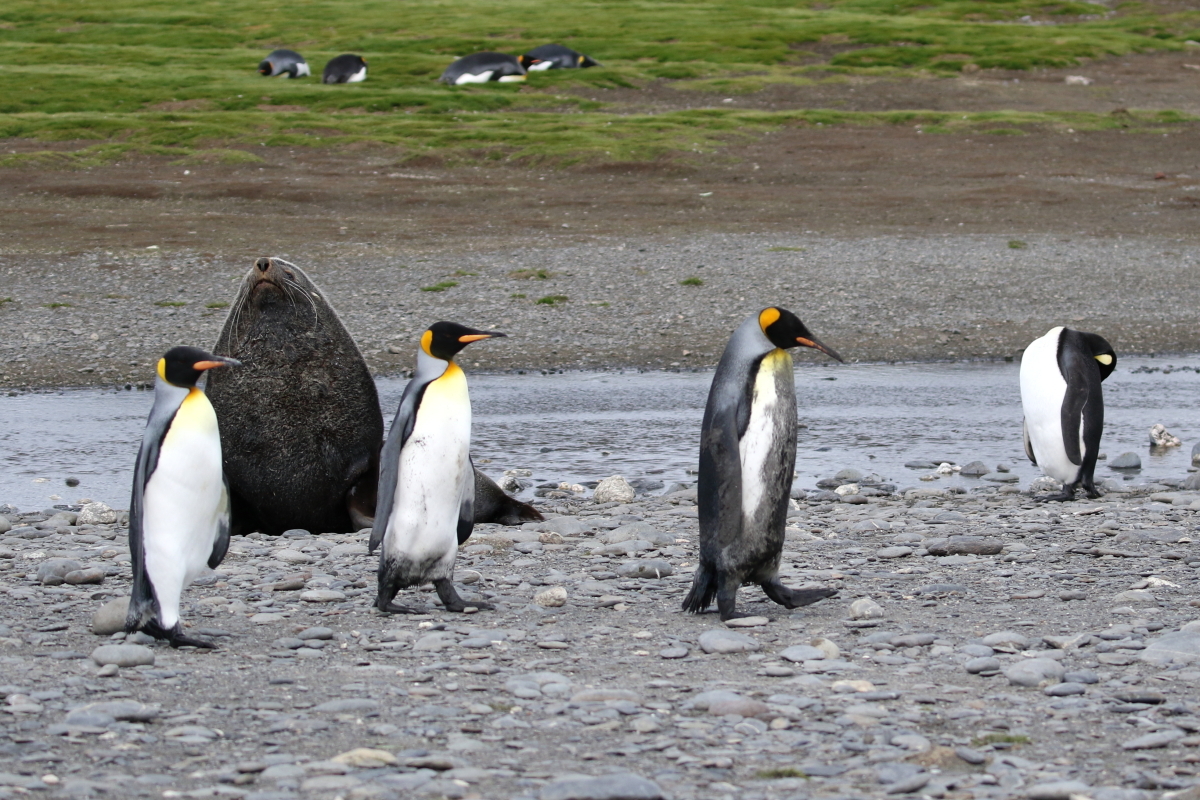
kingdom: Animalia
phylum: Chordata
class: Aves
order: Sphenisciformes
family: Spheniscidae
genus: Aptenodytes
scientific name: Aptenodytes patagonicus
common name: King penguin
